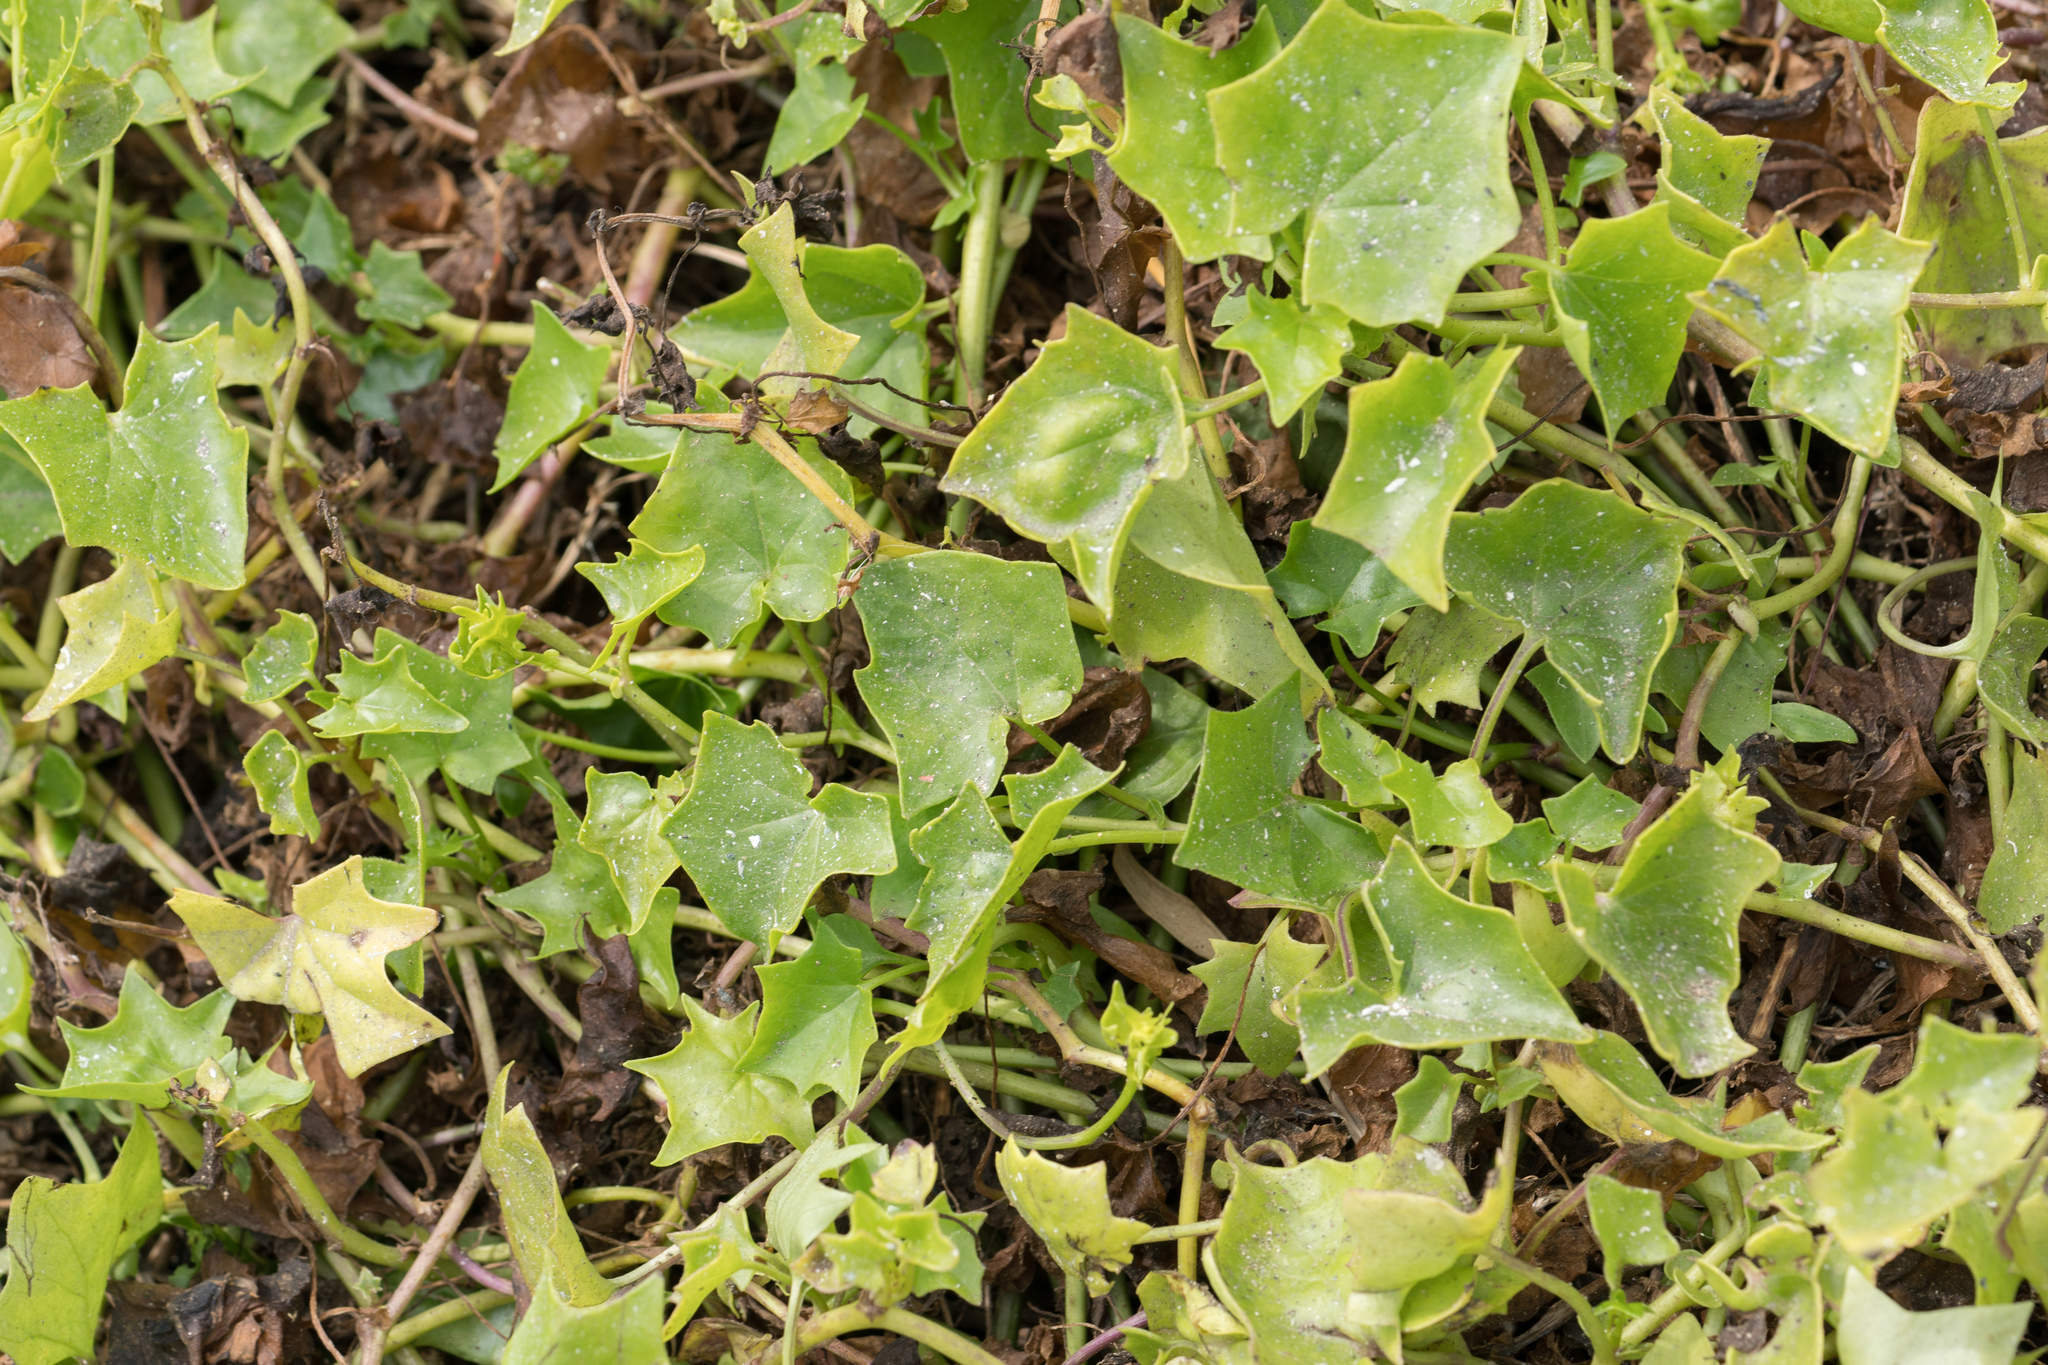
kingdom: Plantae
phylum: Tracheophyta
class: Magnoliopsida
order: Asterales
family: Asteraceae
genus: Delairea
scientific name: Delairea odorata
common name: Cape-ivy
